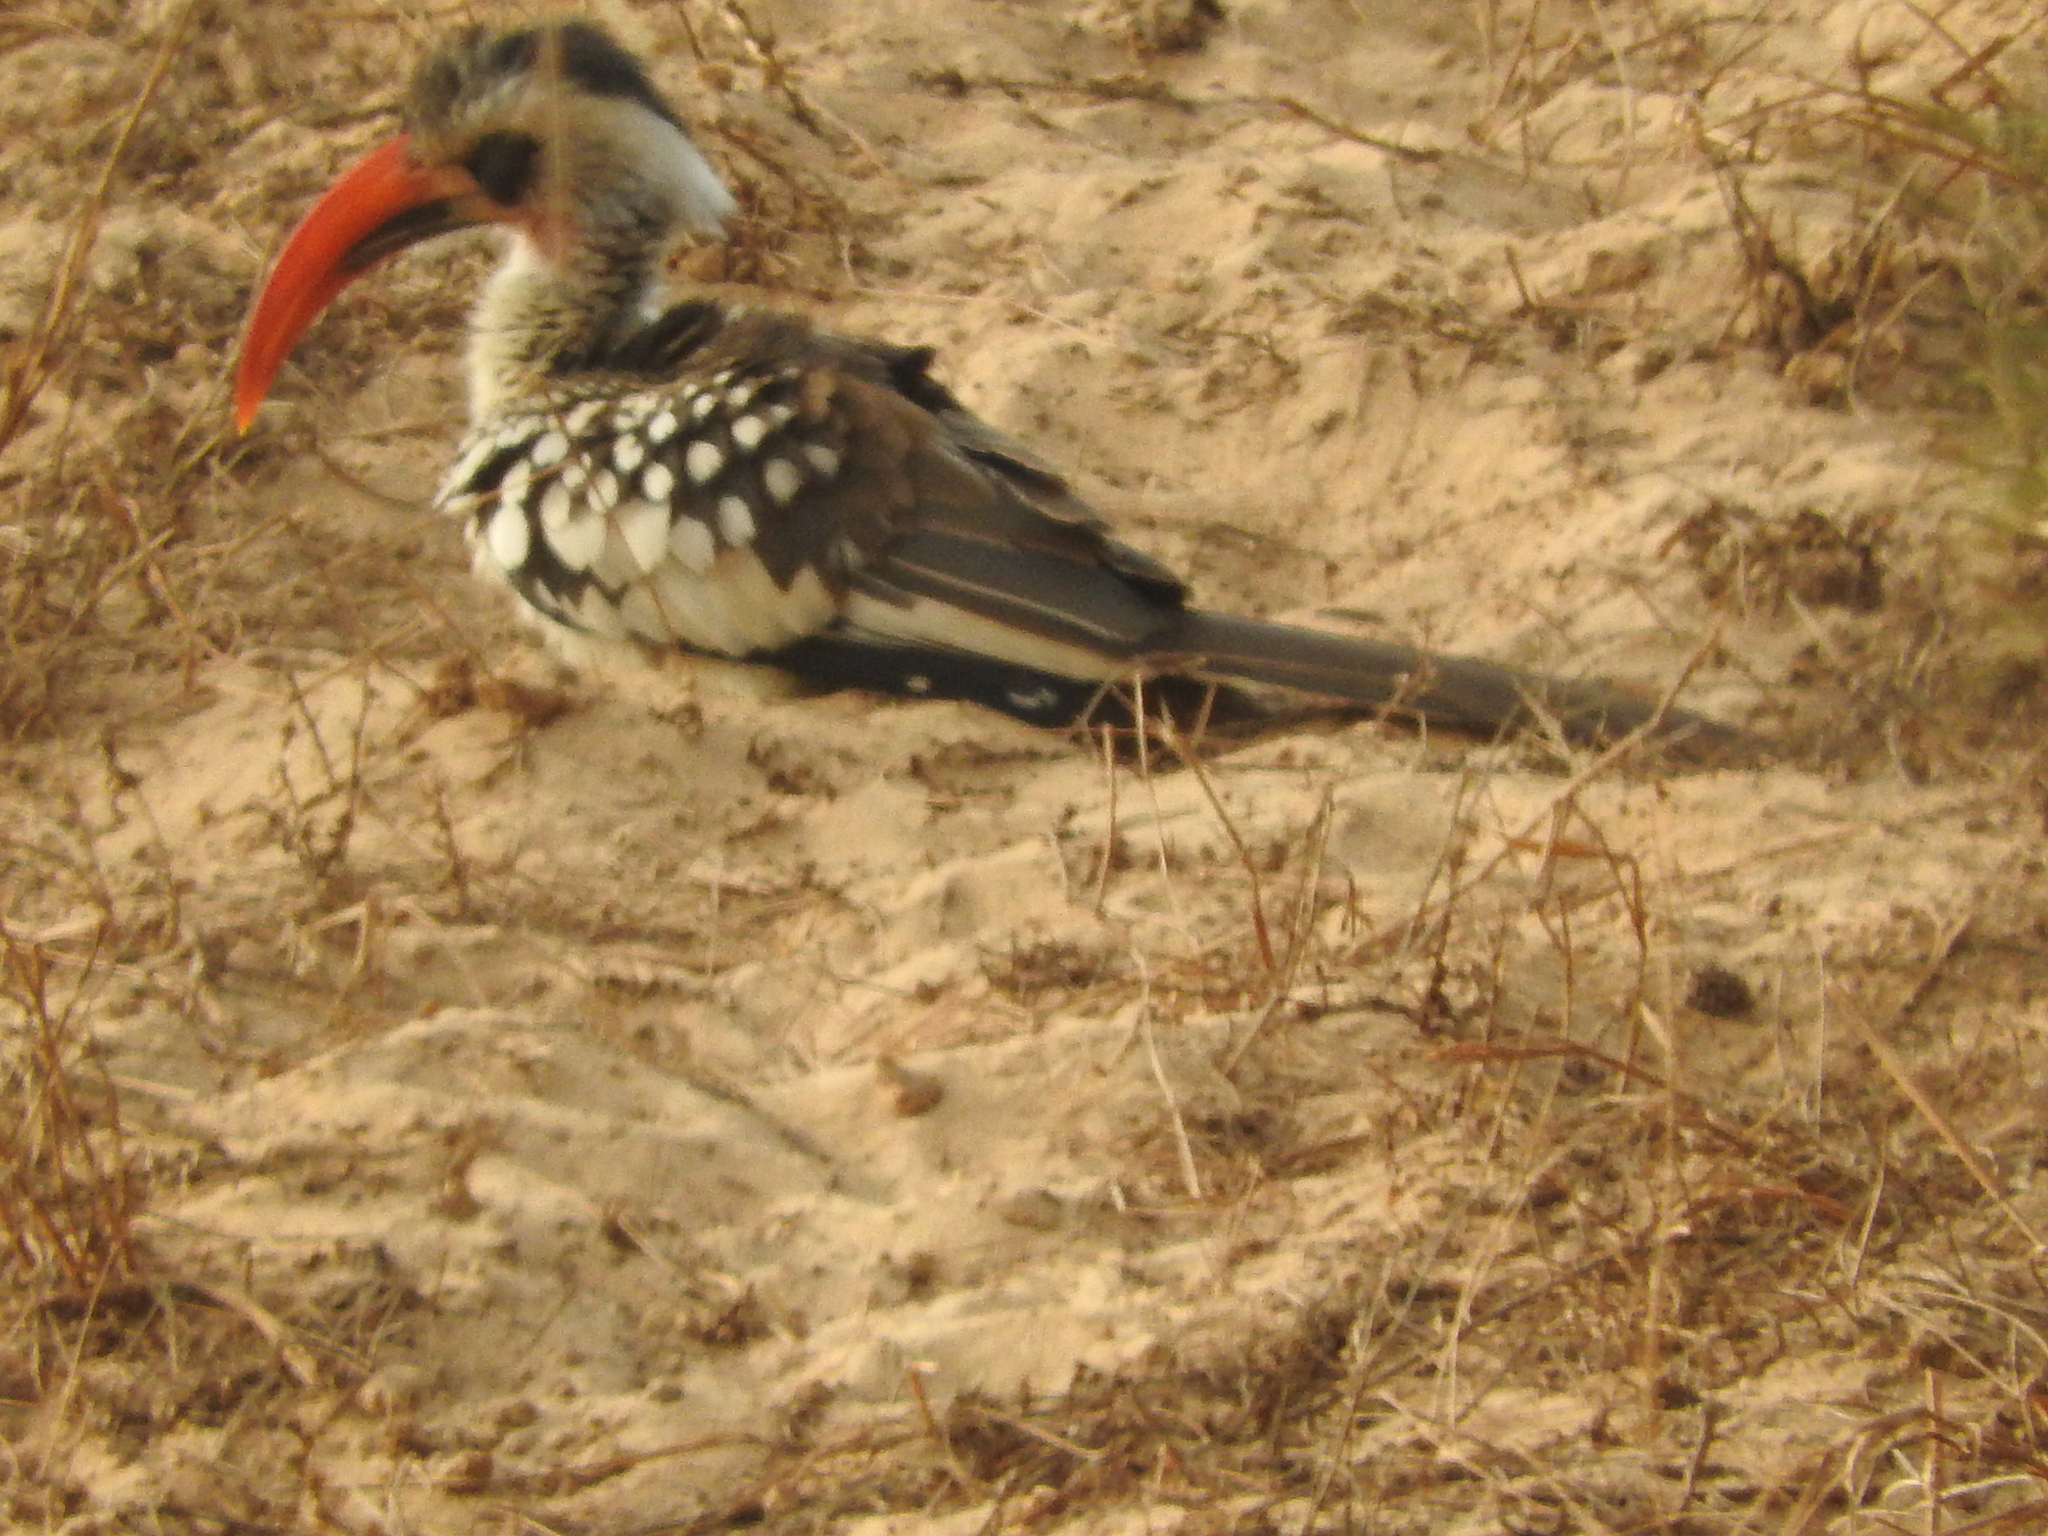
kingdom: Animalia
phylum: Chordata
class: Aves
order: Bucerotiformes
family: Bucerotidae
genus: Tockus
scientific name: Tockus kempi
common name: Western red-billed hornbill
